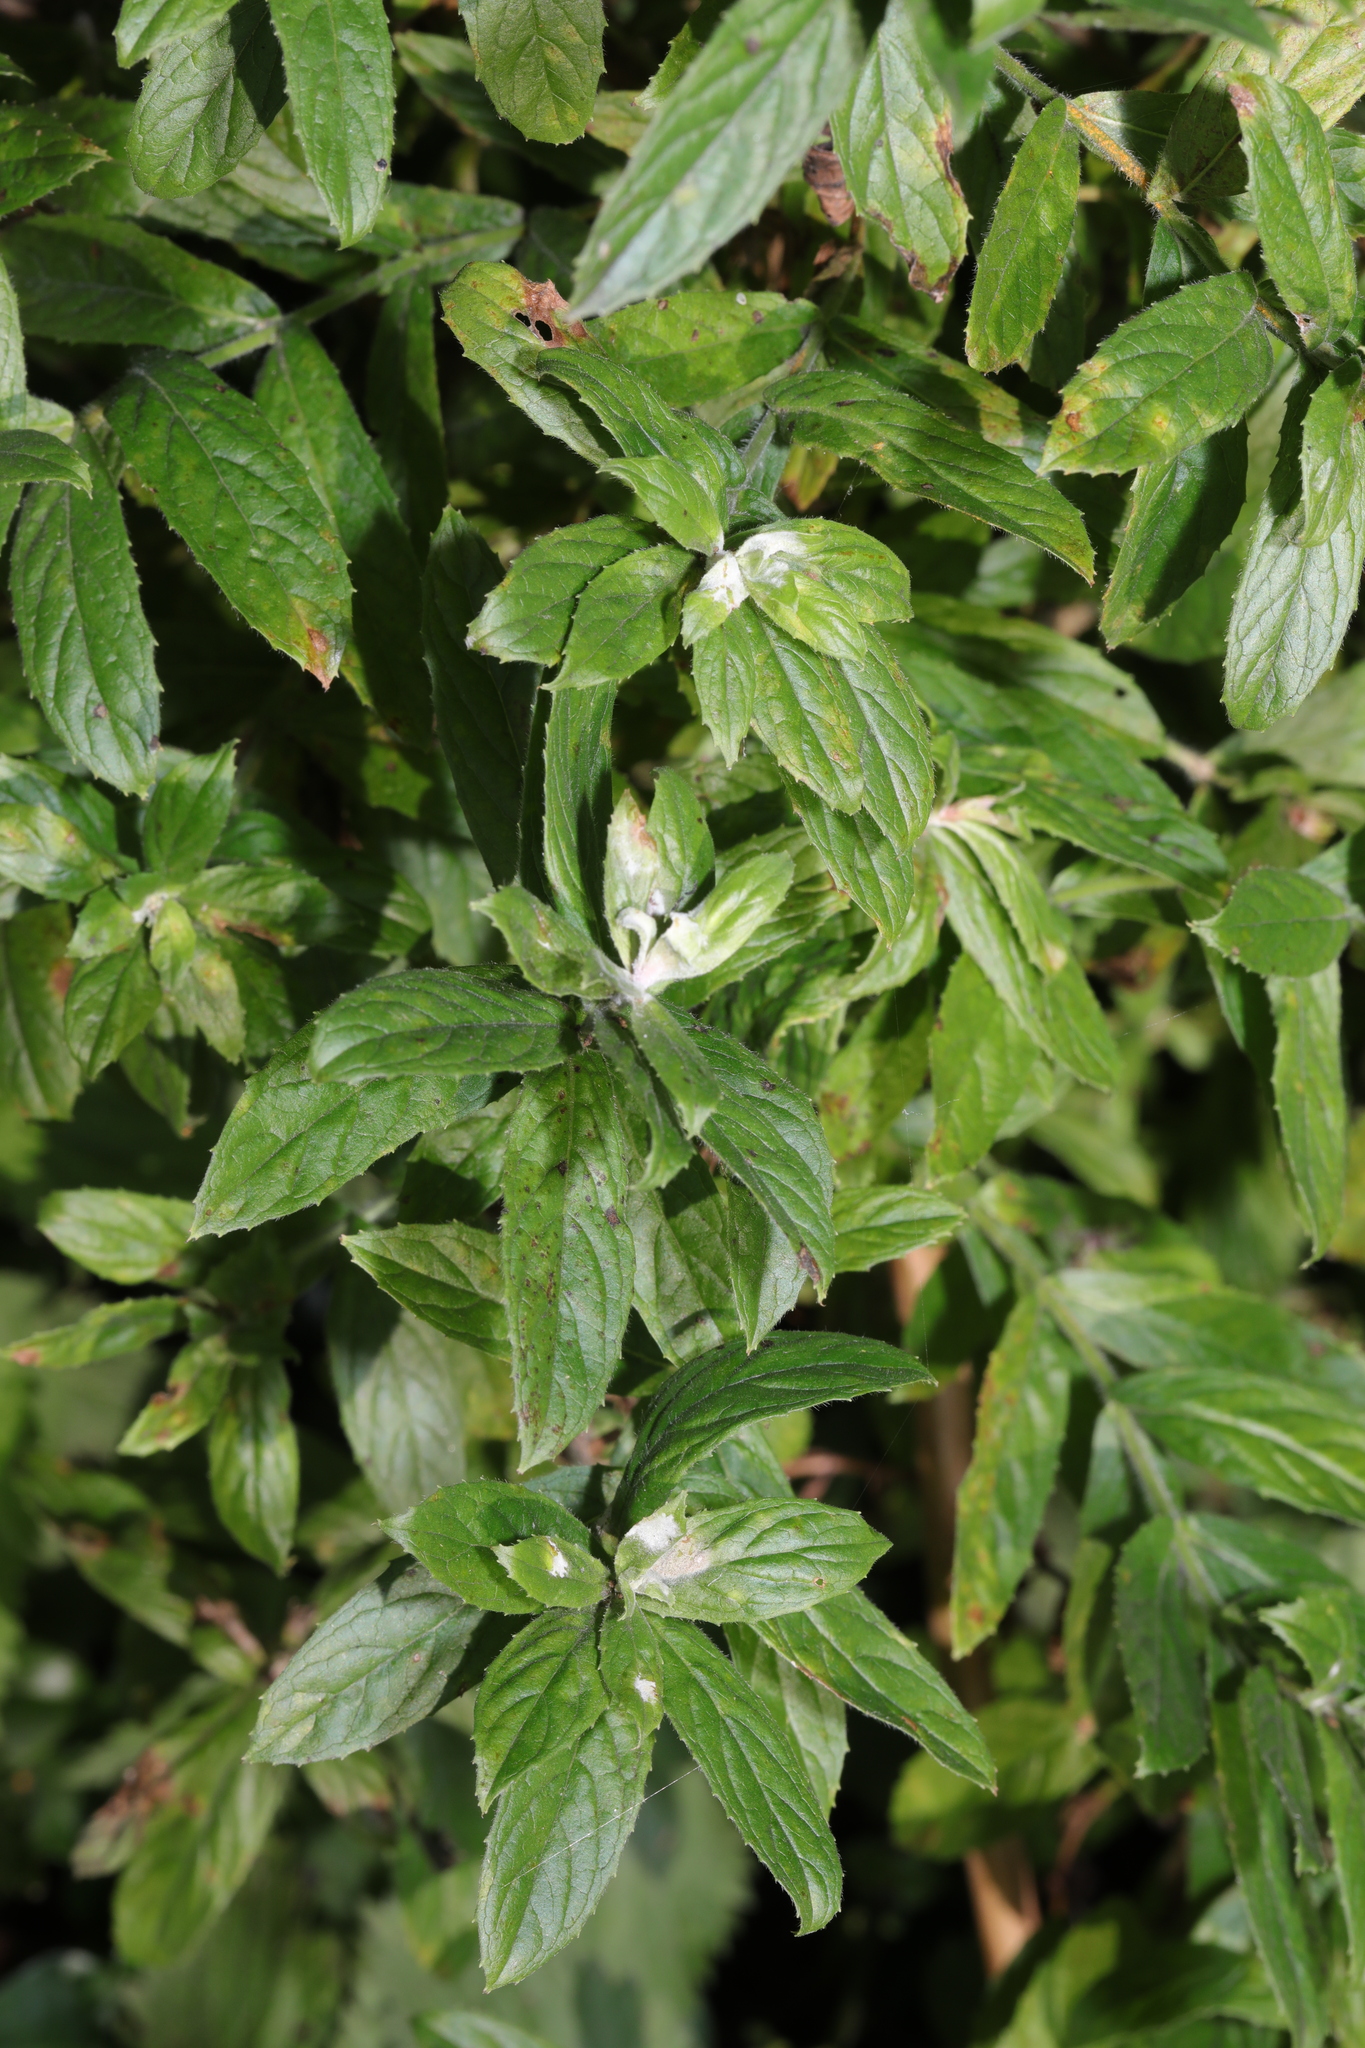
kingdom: Plantae
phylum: Tracheophyta
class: Magnoliopsida
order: Myrtales
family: Onagraceae
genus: Epilobium
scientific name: Epilobium hirsutum
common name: Great willowherb
